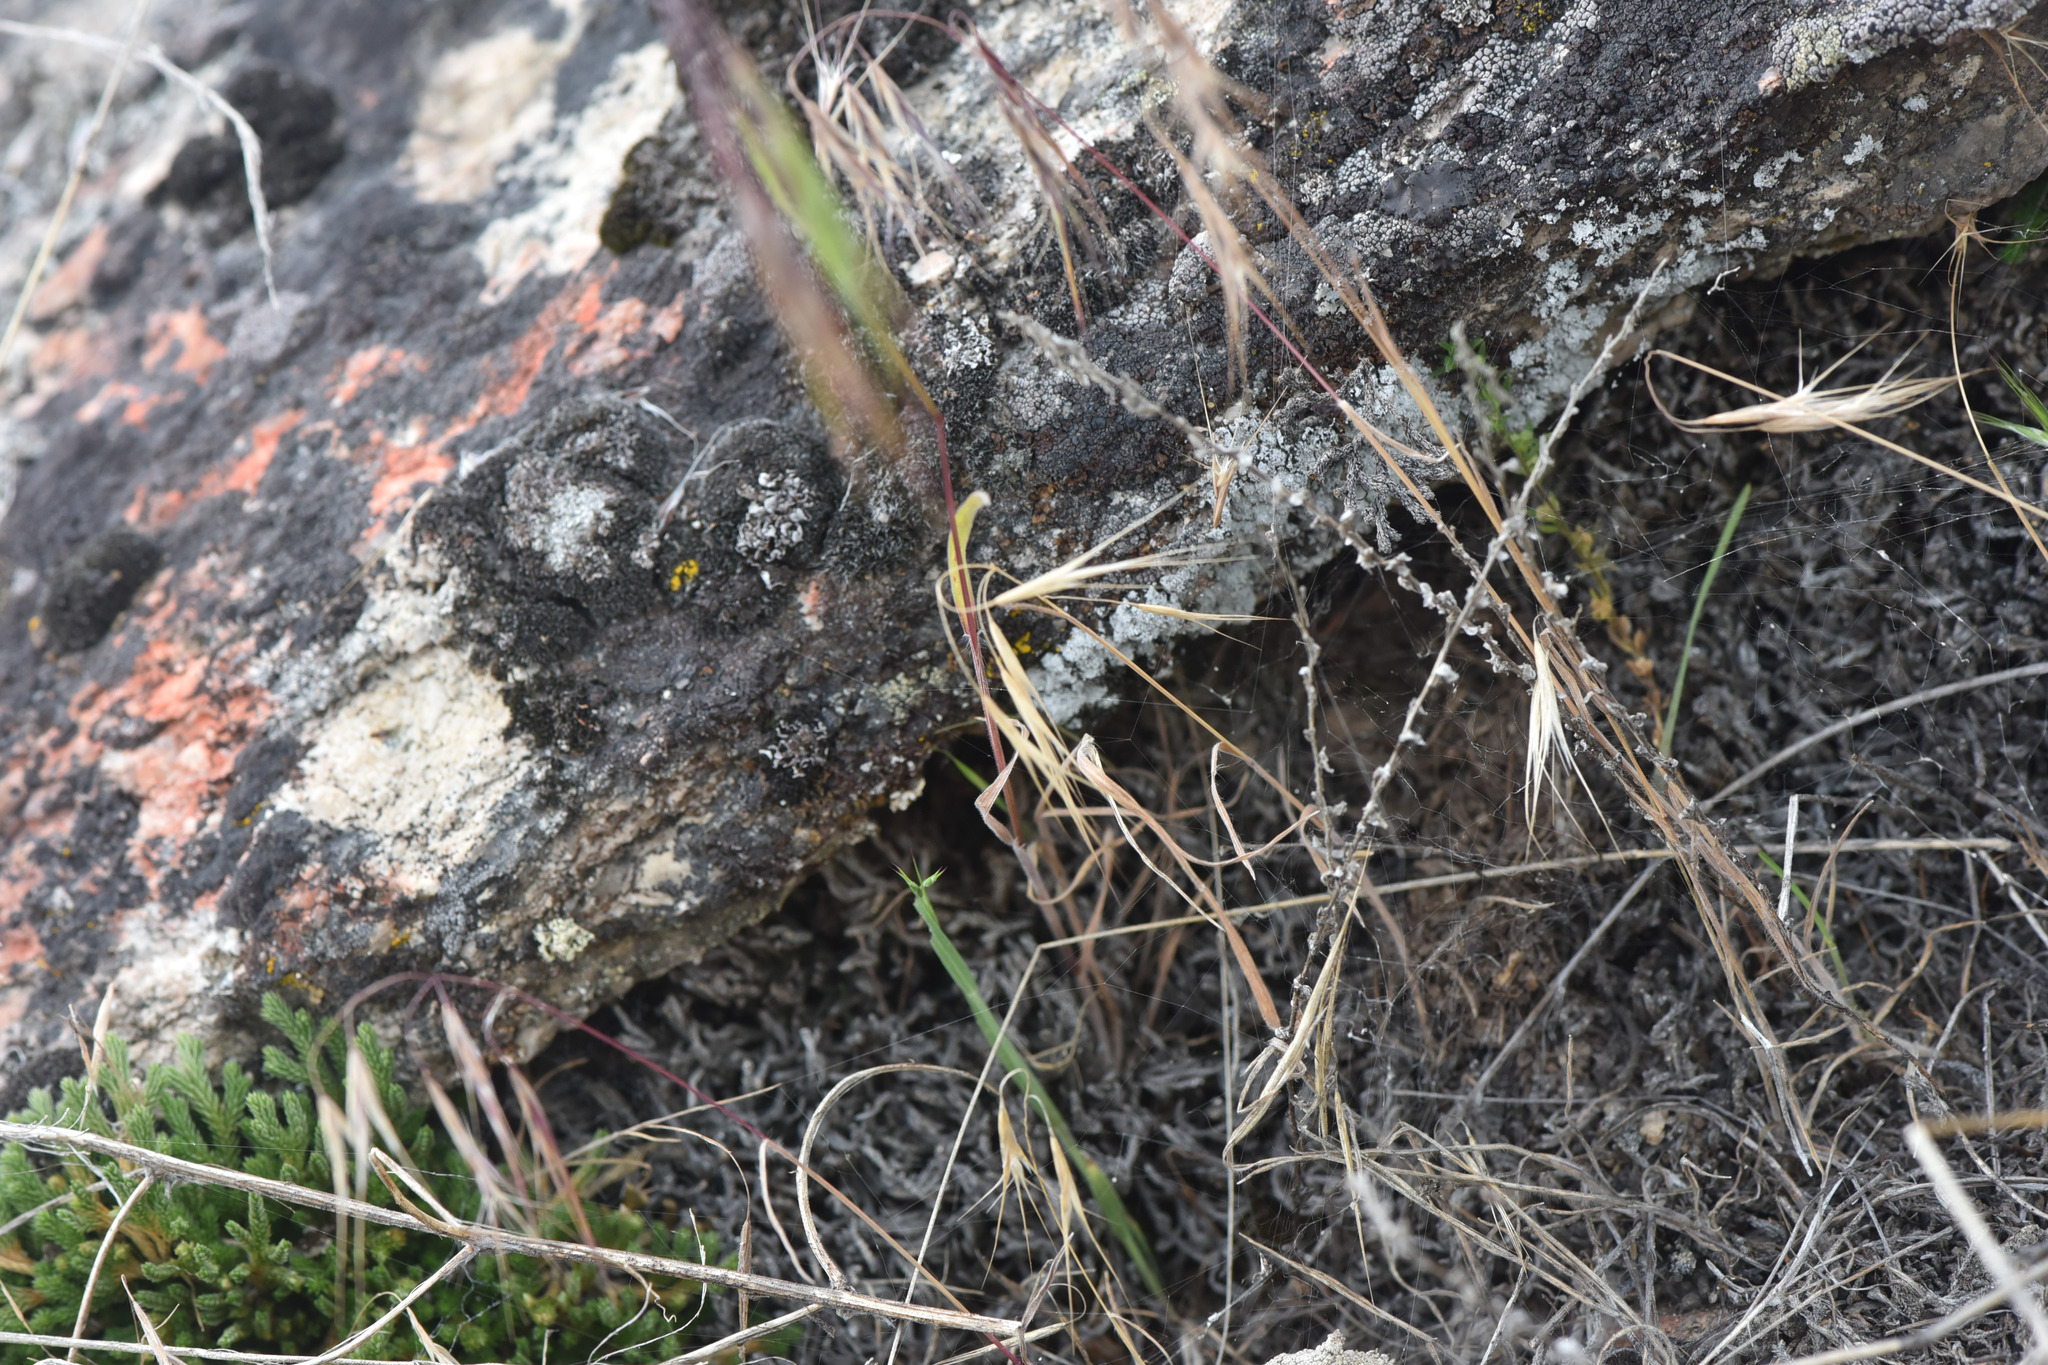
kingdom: Plantae
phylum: Tracheophyta
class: Liliopsida
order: Poales
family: Poaceae
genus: Bromus
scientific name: Bromus tectorum
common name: Cheatgrass
